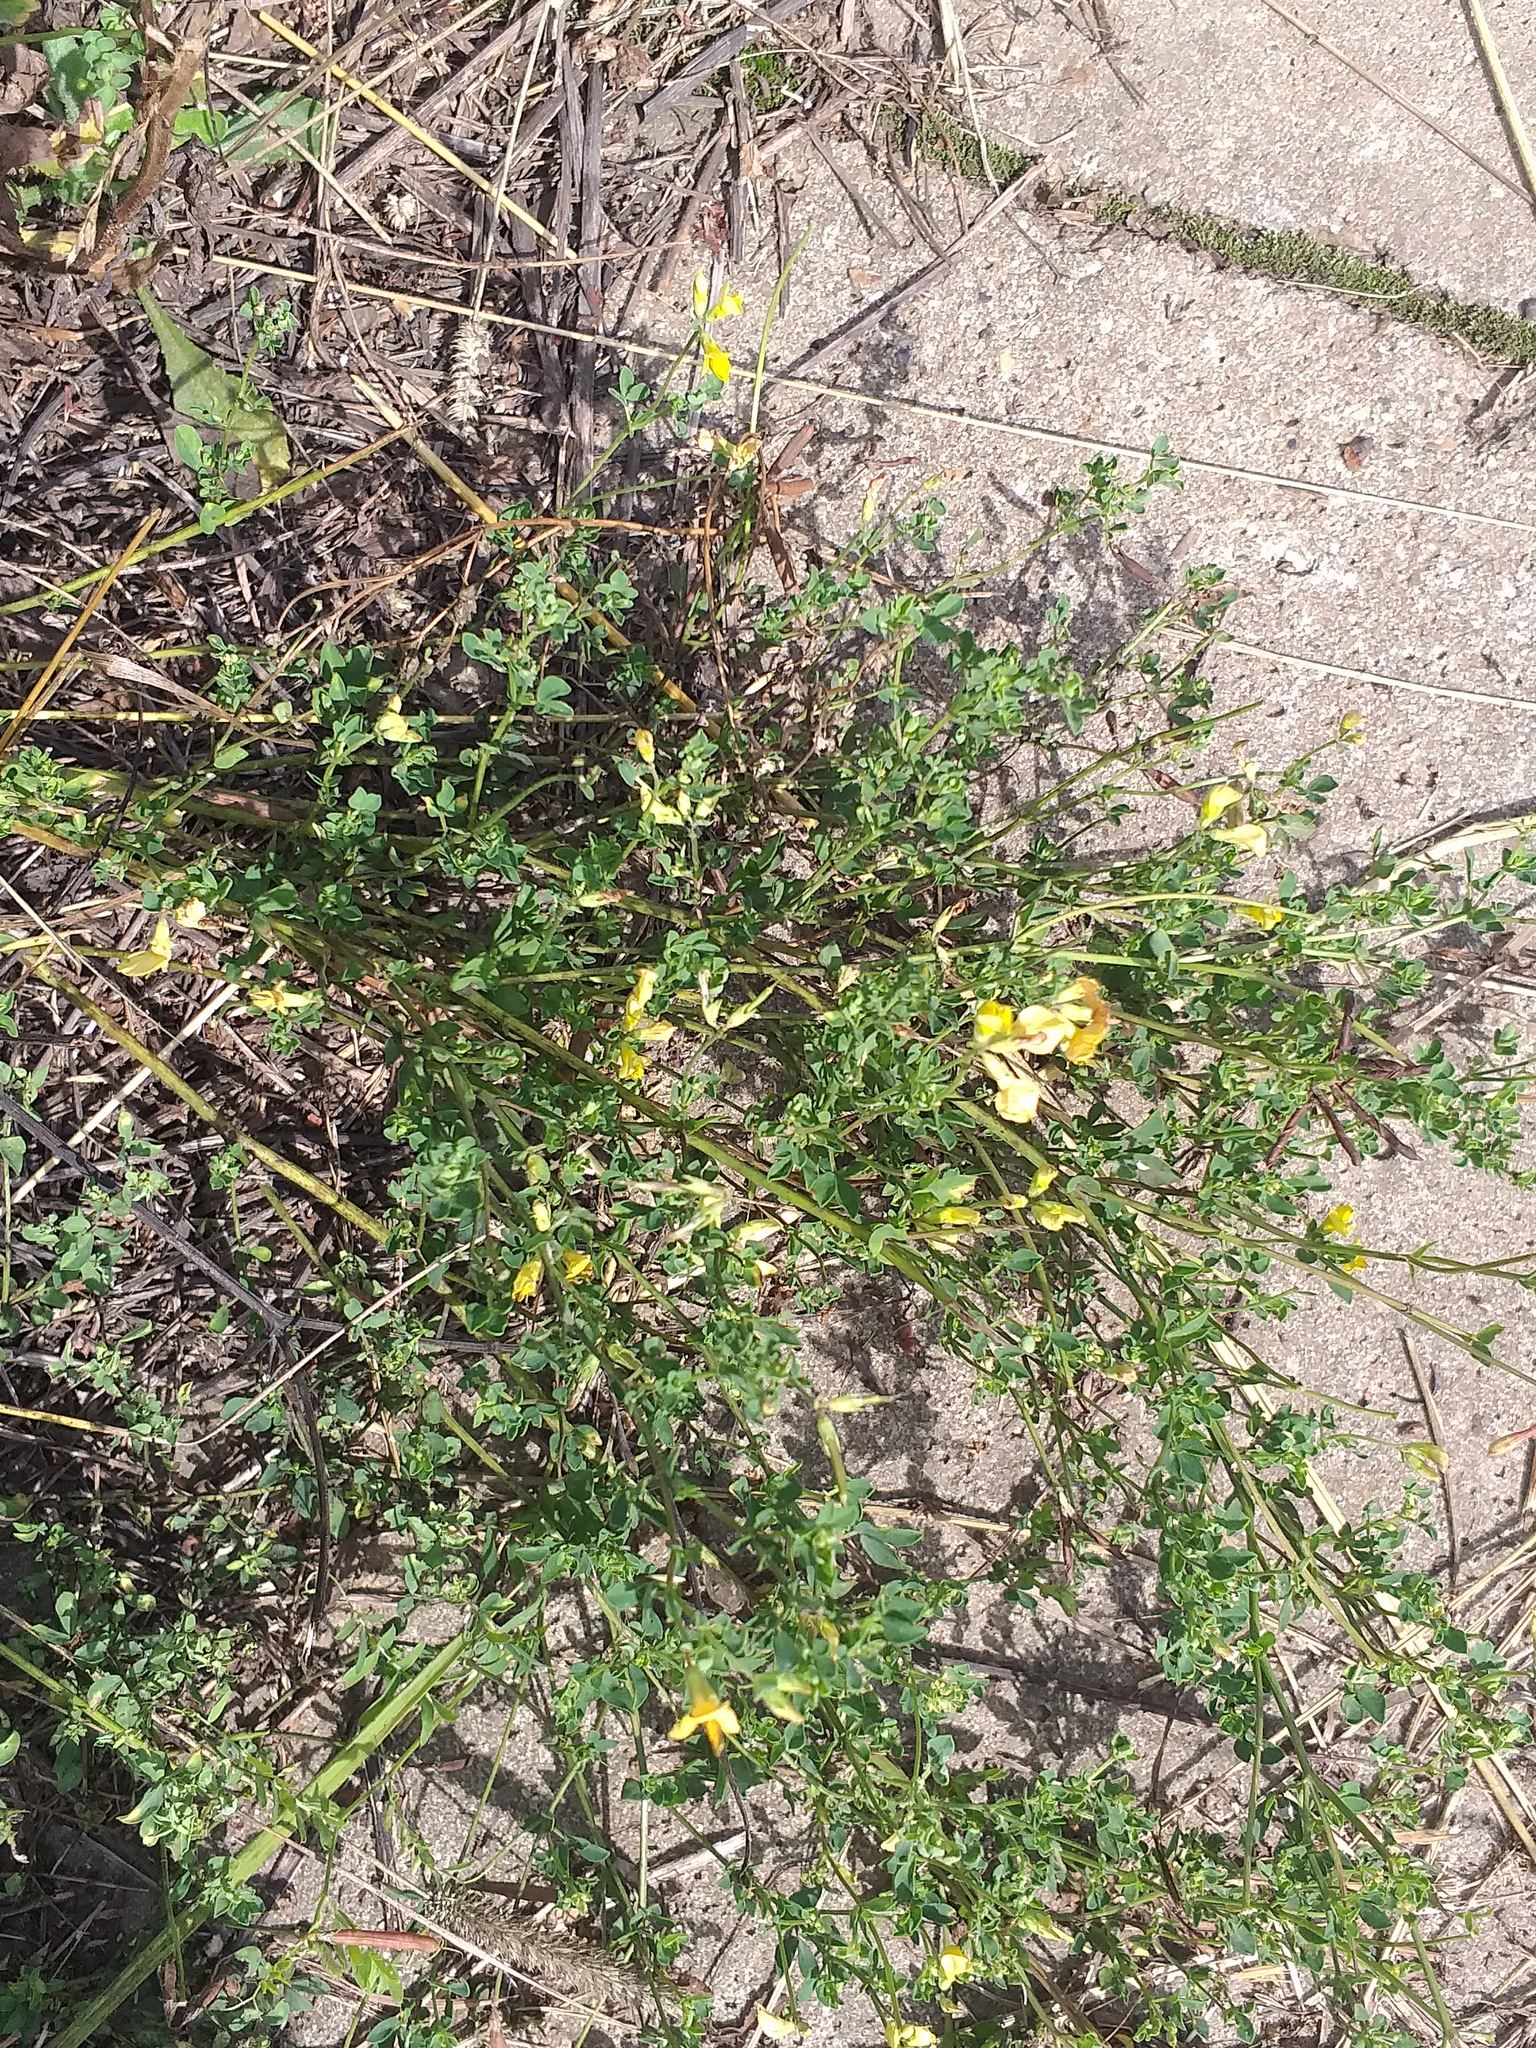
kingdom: Plantae
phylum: Tracheophyta
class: Magnoliopsida
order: Fabales
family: Fabaceae
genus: Lotus
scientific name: Lotus corniculatus
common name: Common bird's-foot-trefoil
